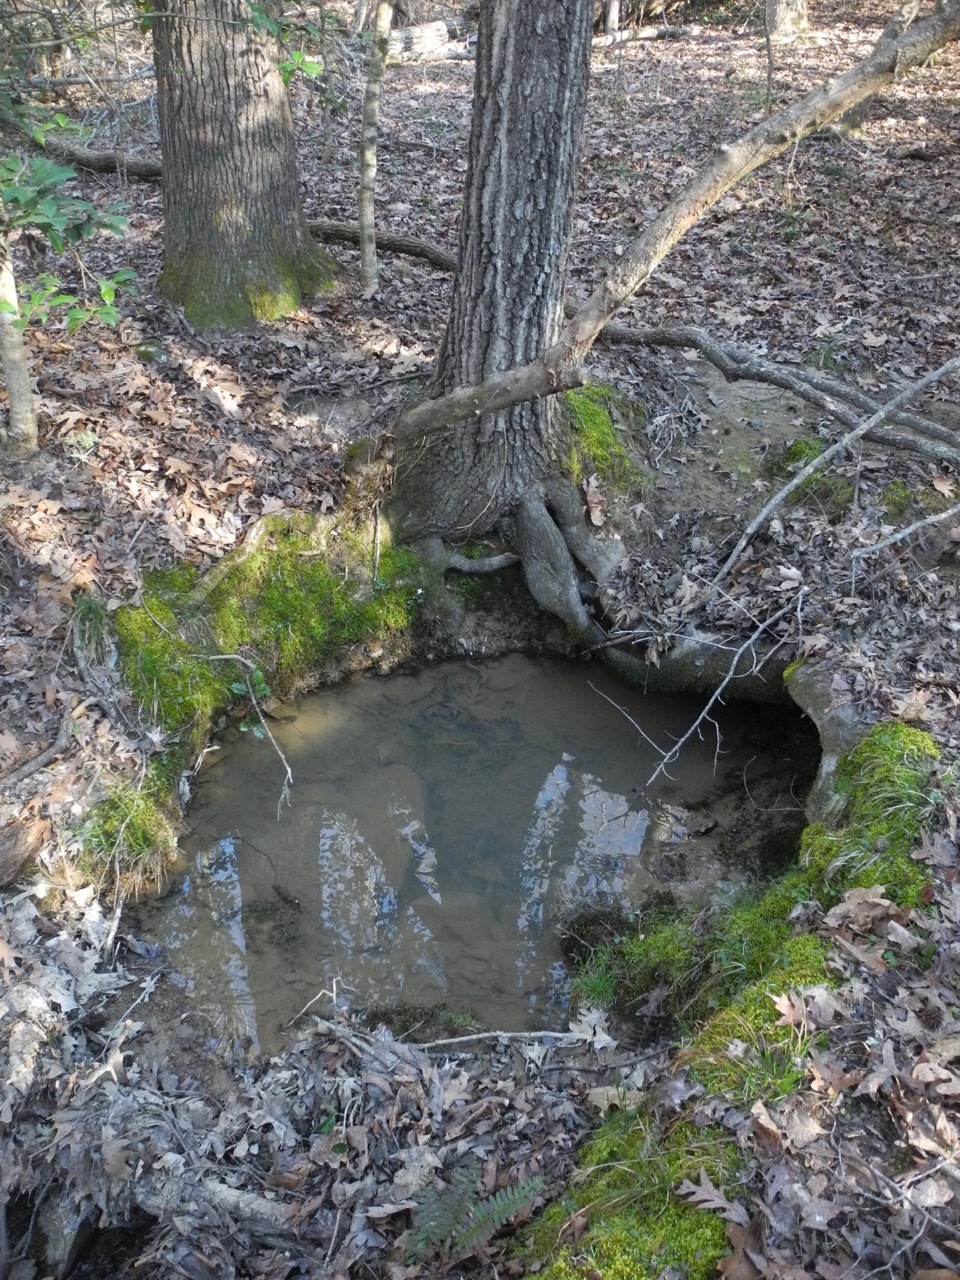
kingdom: Plantae
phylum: Tracheophyta
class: Magnoliopsida
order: Gentianales
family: Rubiaceae
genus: Houstonia
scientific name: Houstonia caerulea
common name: Bluets
